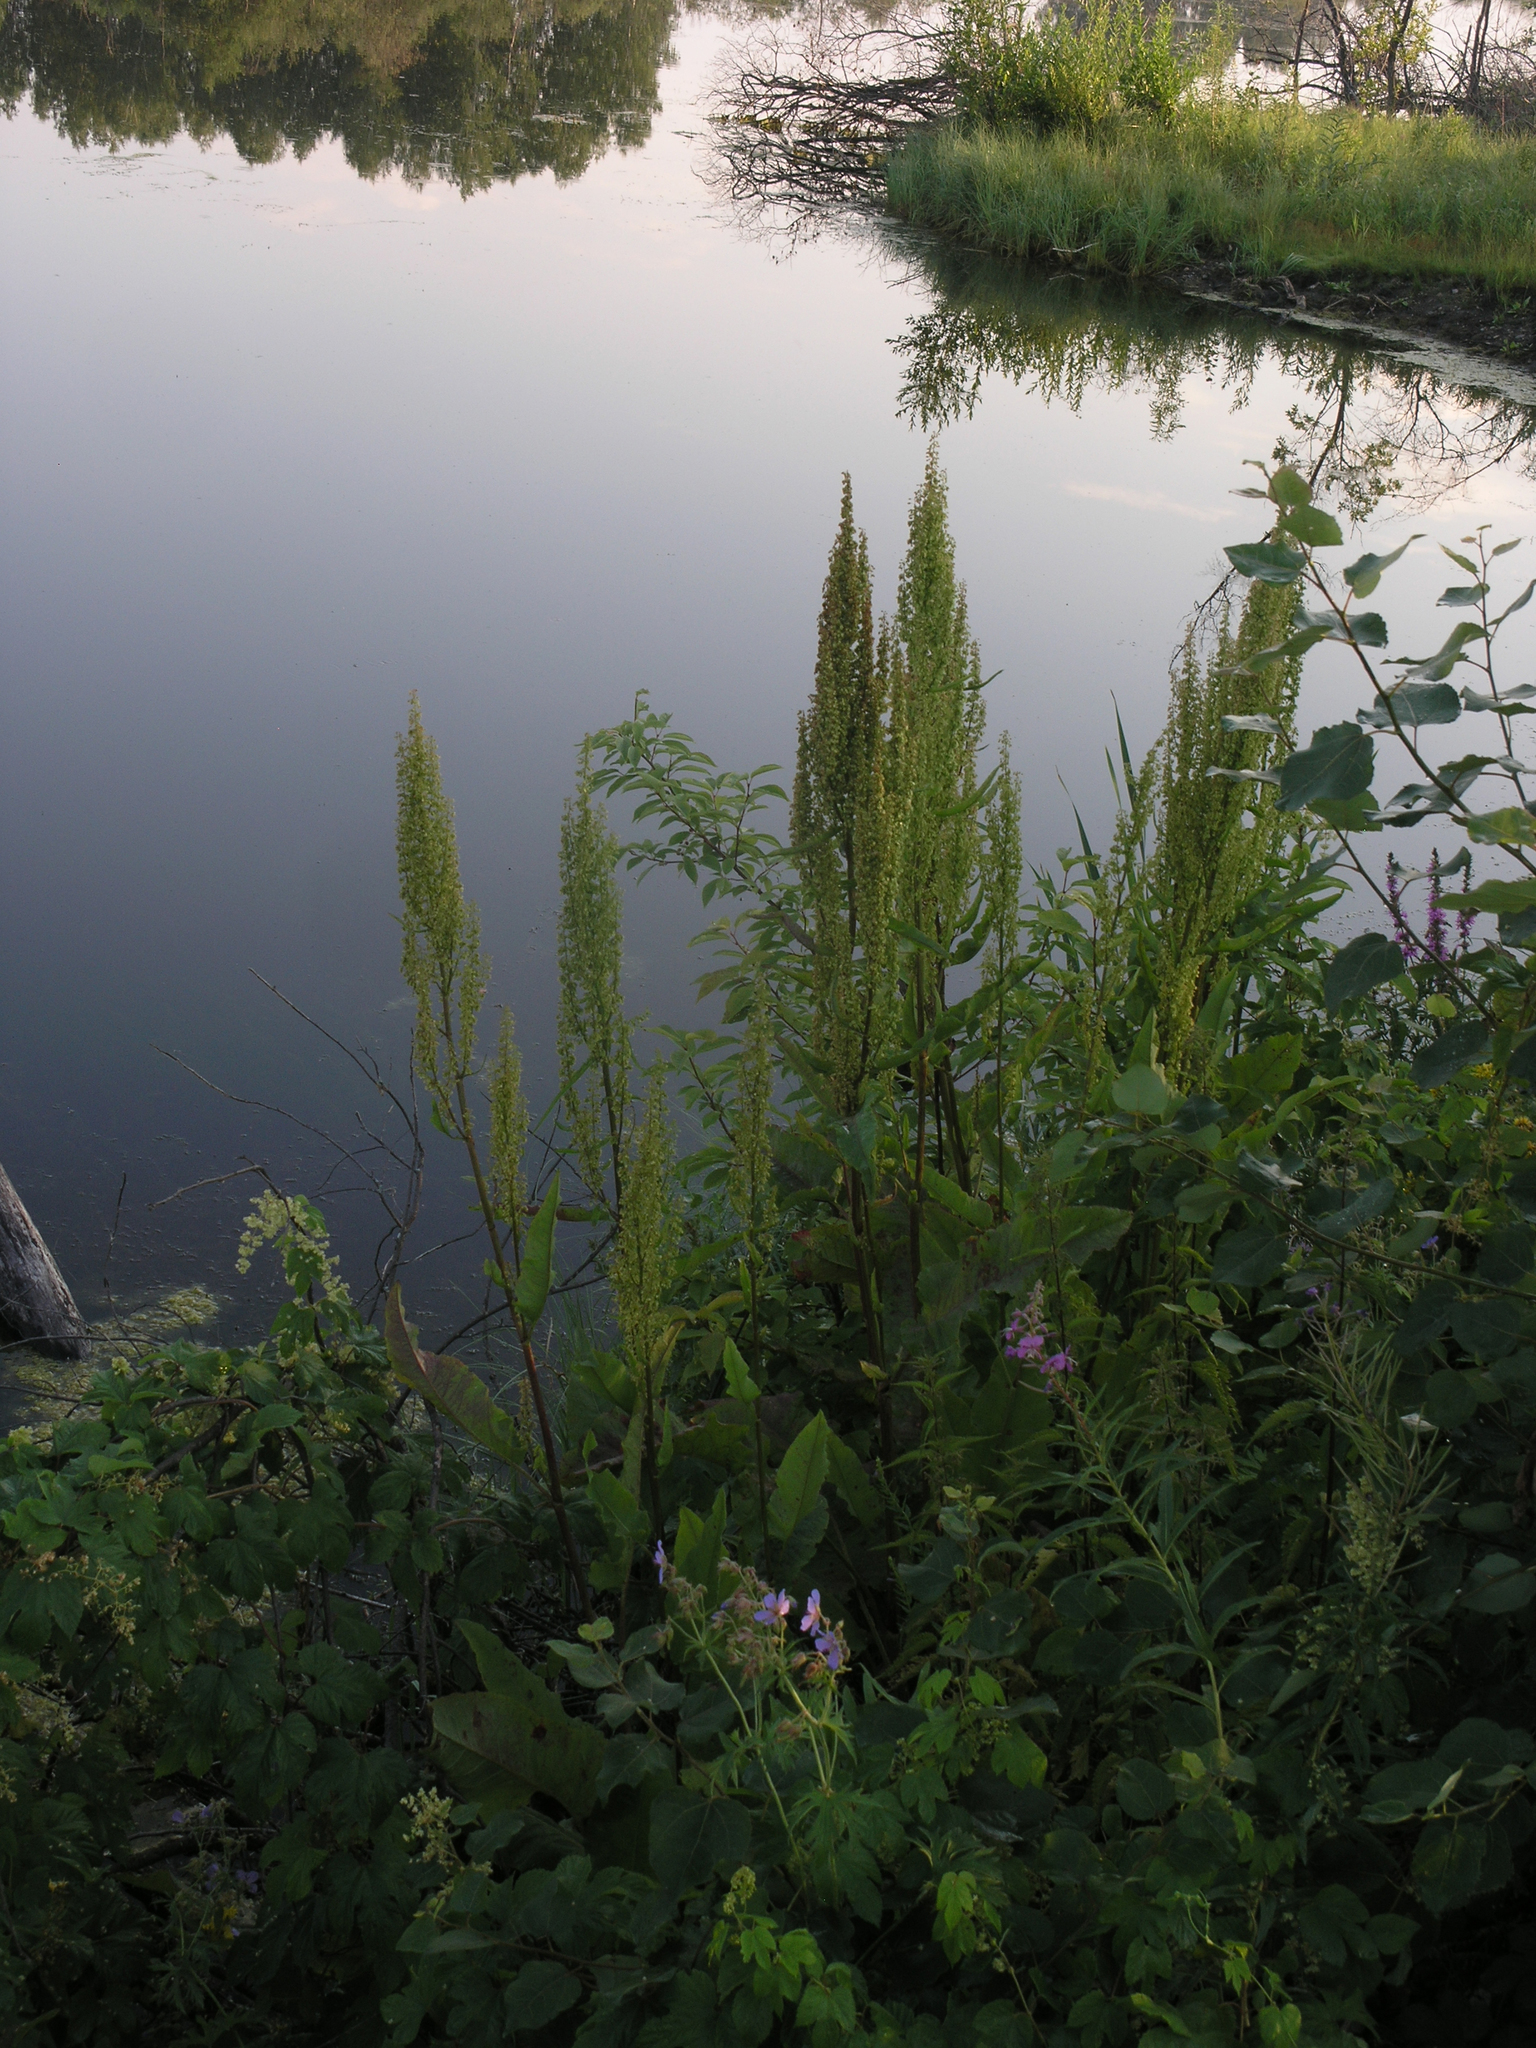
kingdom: Plantae
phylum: Tracheophyta
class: Magnoliopsida
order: Caryophyllales
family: Polygonaceae
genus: Rumex
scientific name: Rumex aquaticus
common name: Scottish dock
